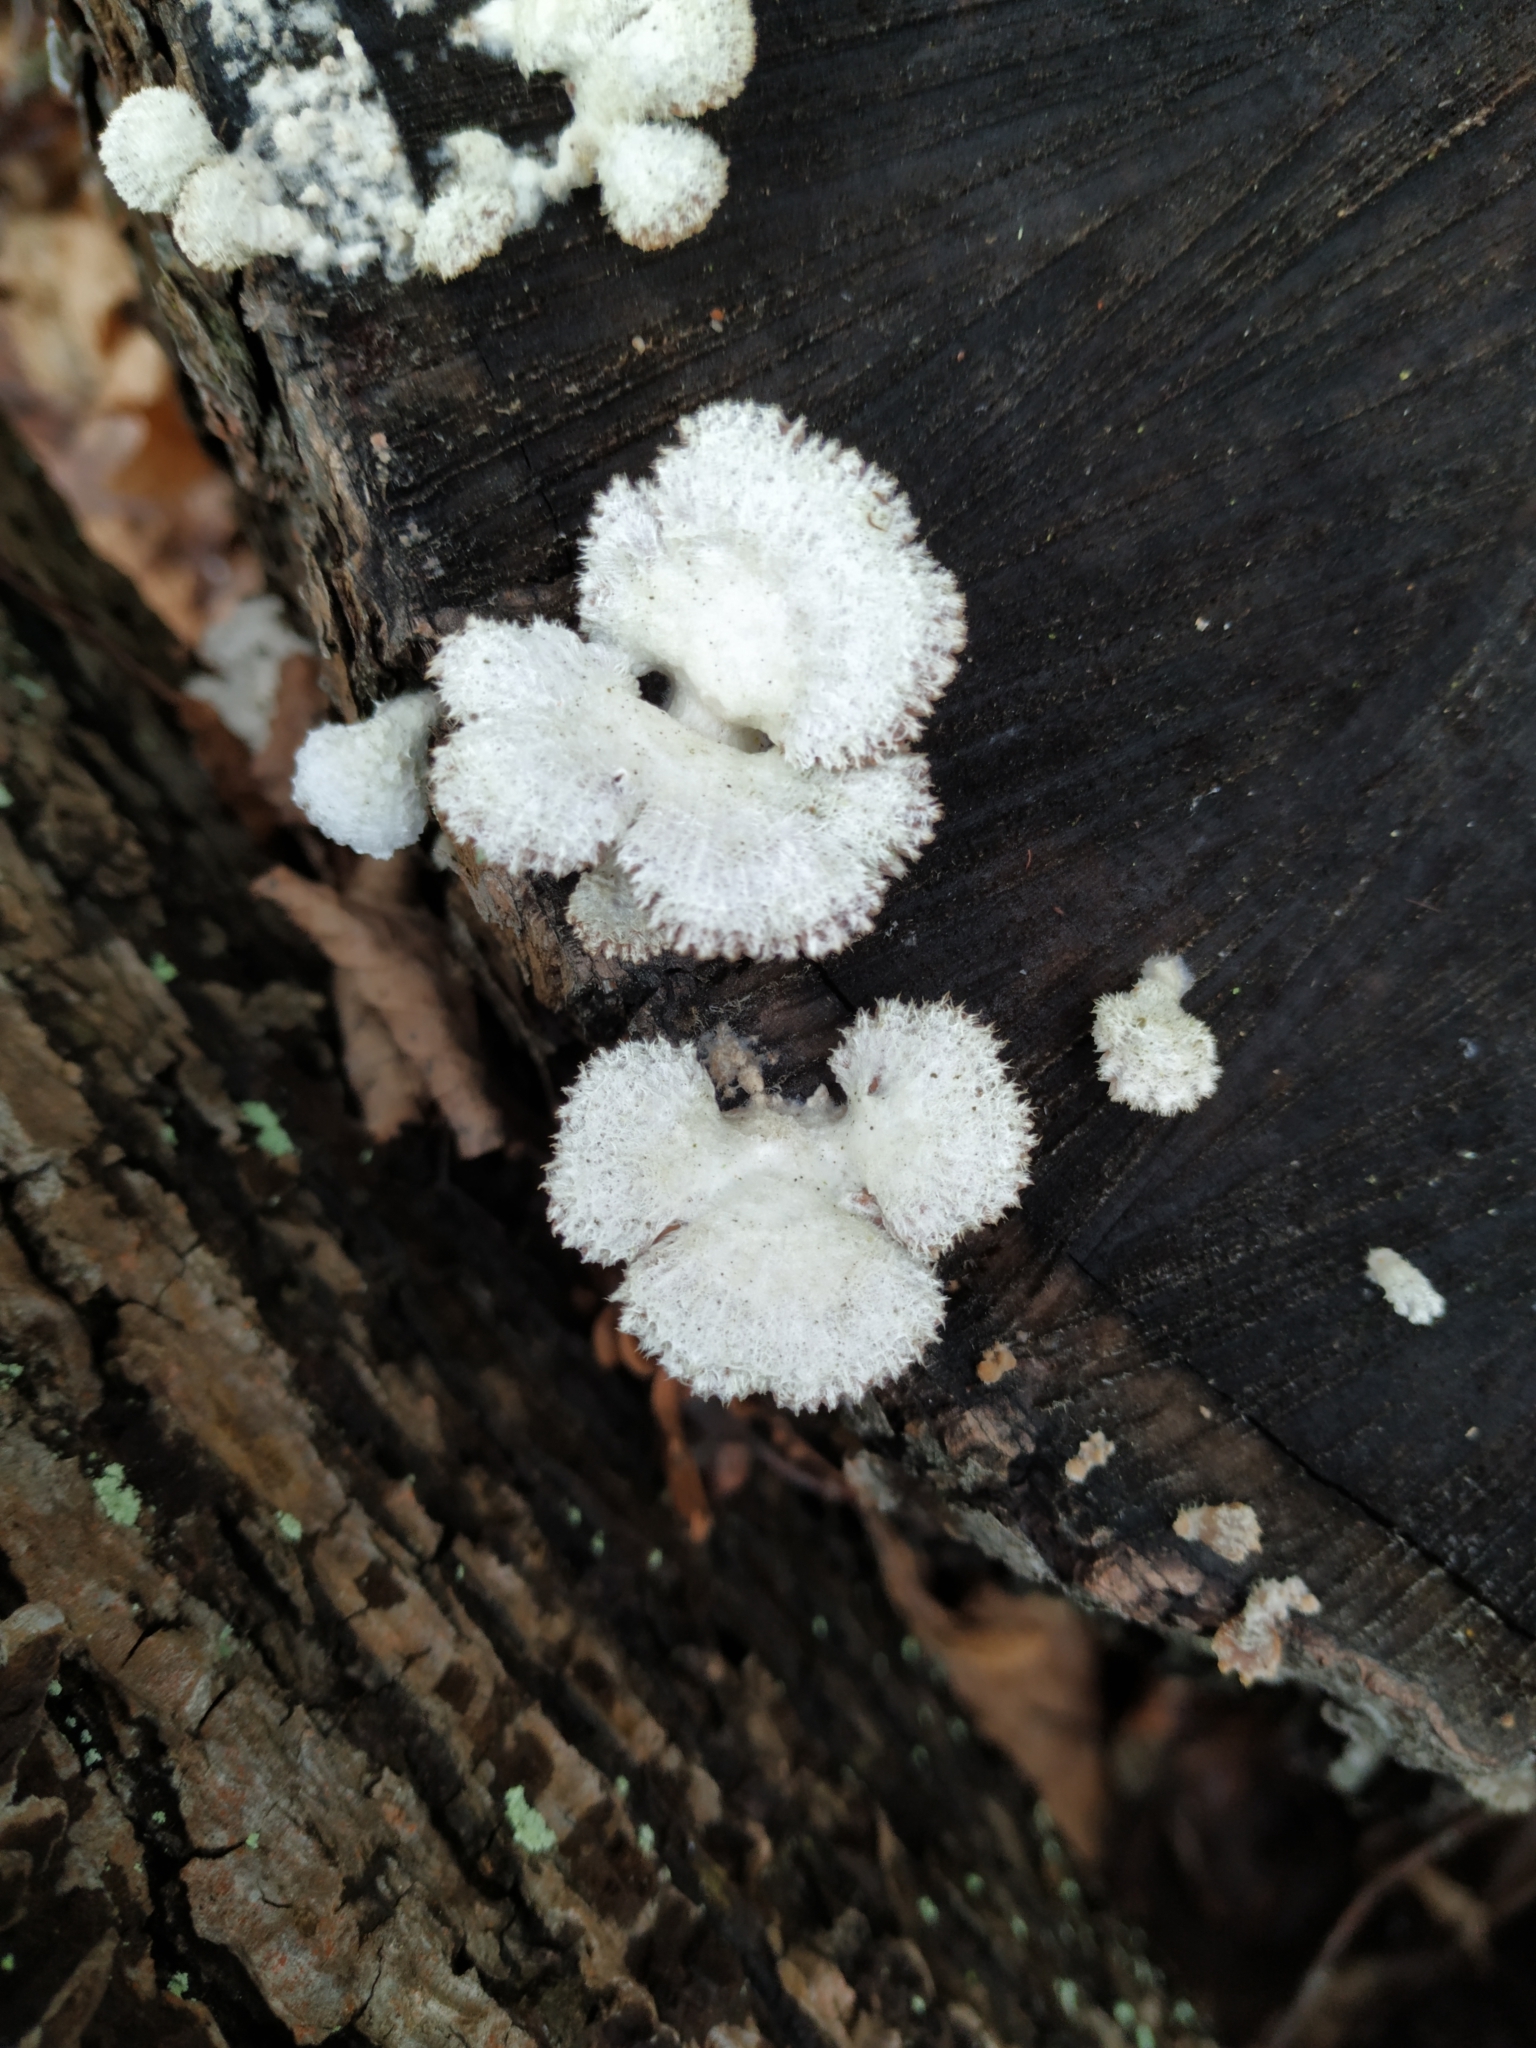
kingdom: Fungi
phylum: Basidiomycota
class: Agaricomycetes
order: Agaricales
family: Schizophyllaceae
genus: Schizophyllum
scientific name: Schizophyllum commune
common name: Common porecrust
